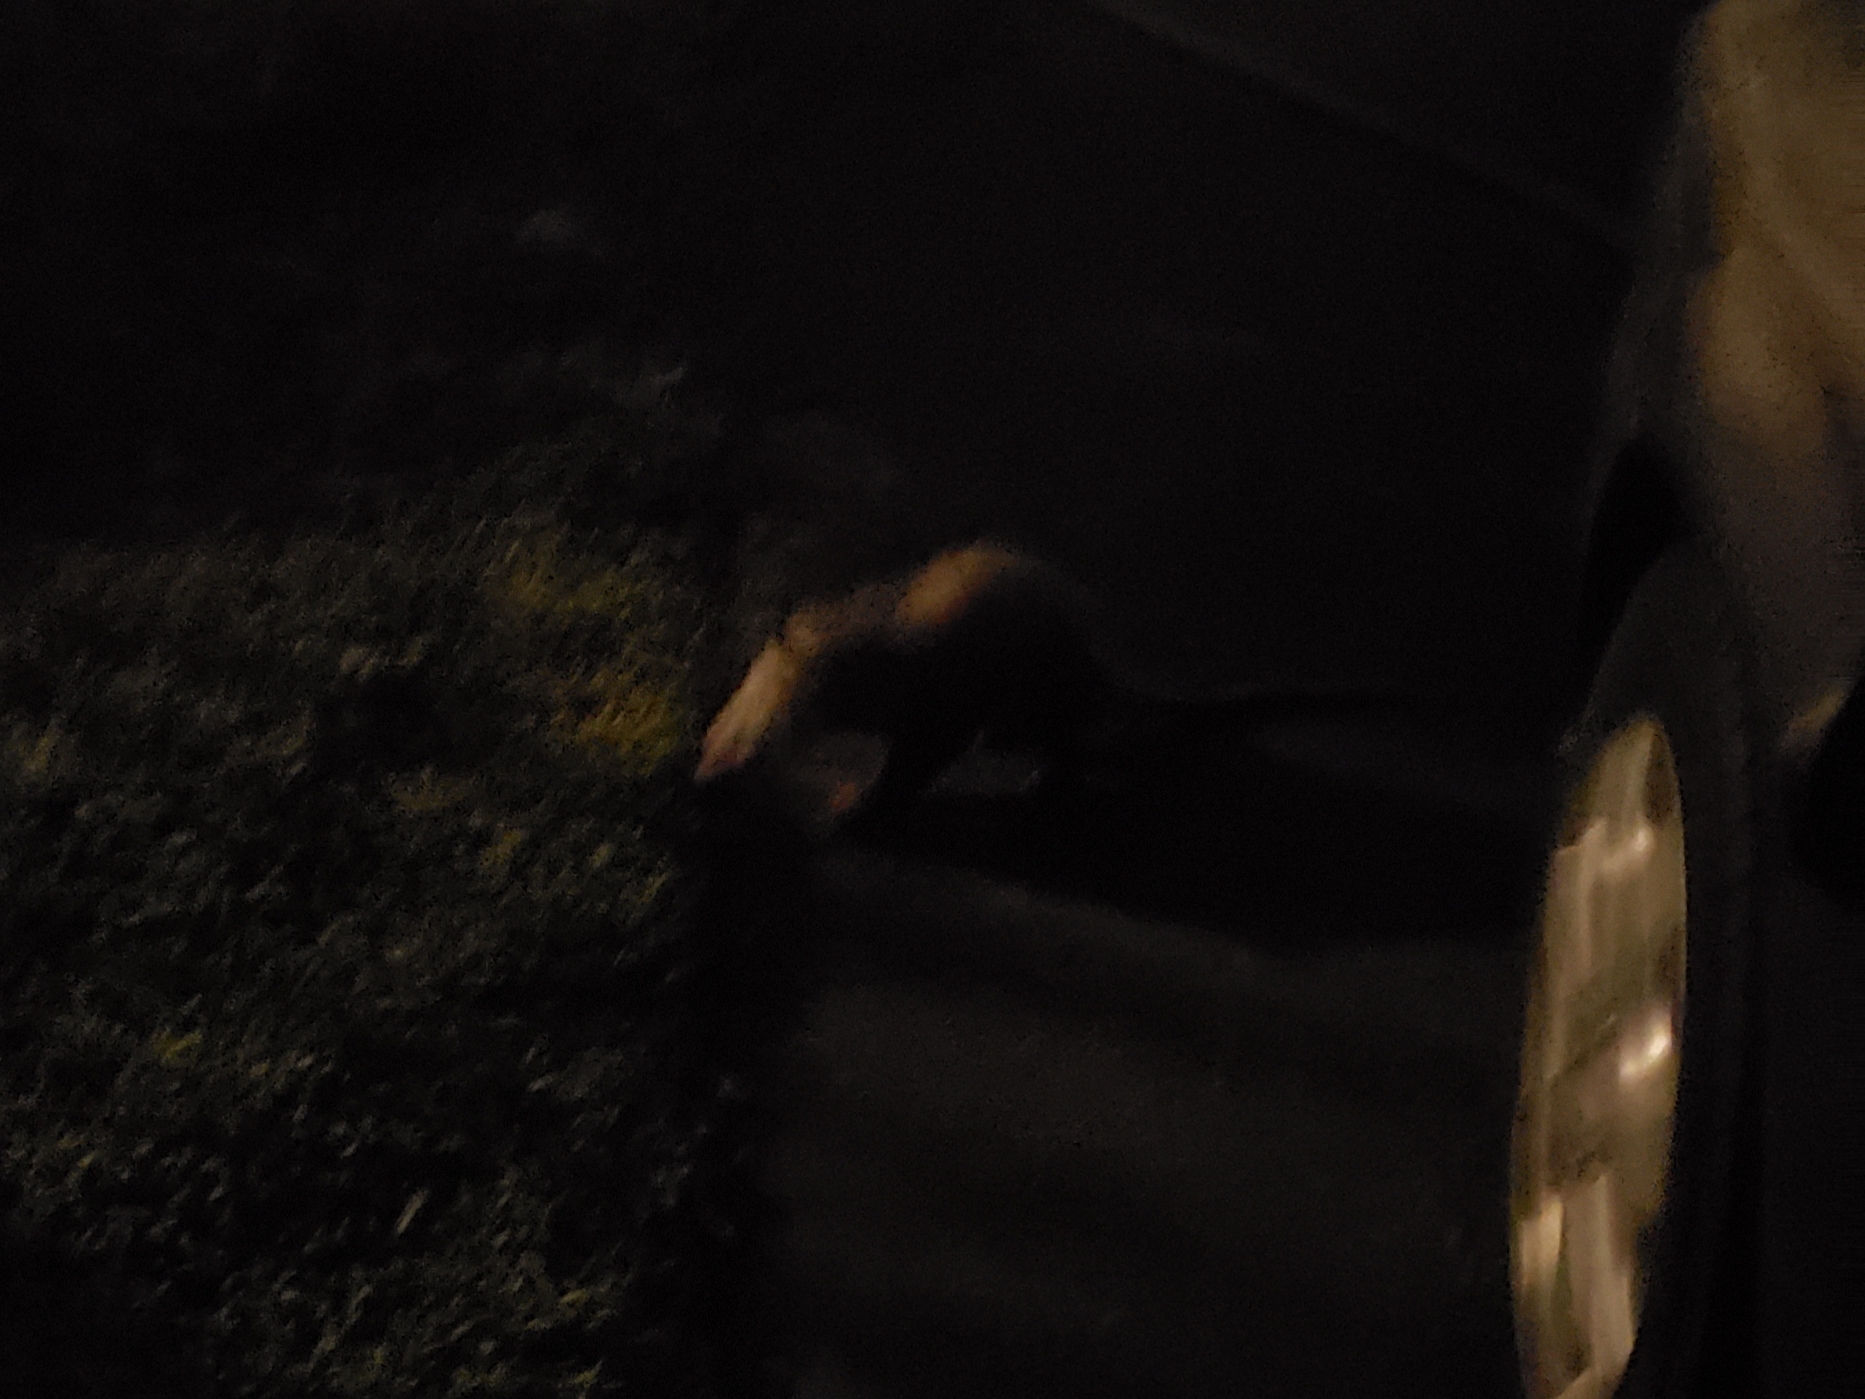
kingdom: Animalia
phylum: Chordata
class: Mammalia
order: Didelphimorphia
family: Didelphidae
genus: Didelphis
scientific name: Didelphis virginiana
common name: Virginia opossum
